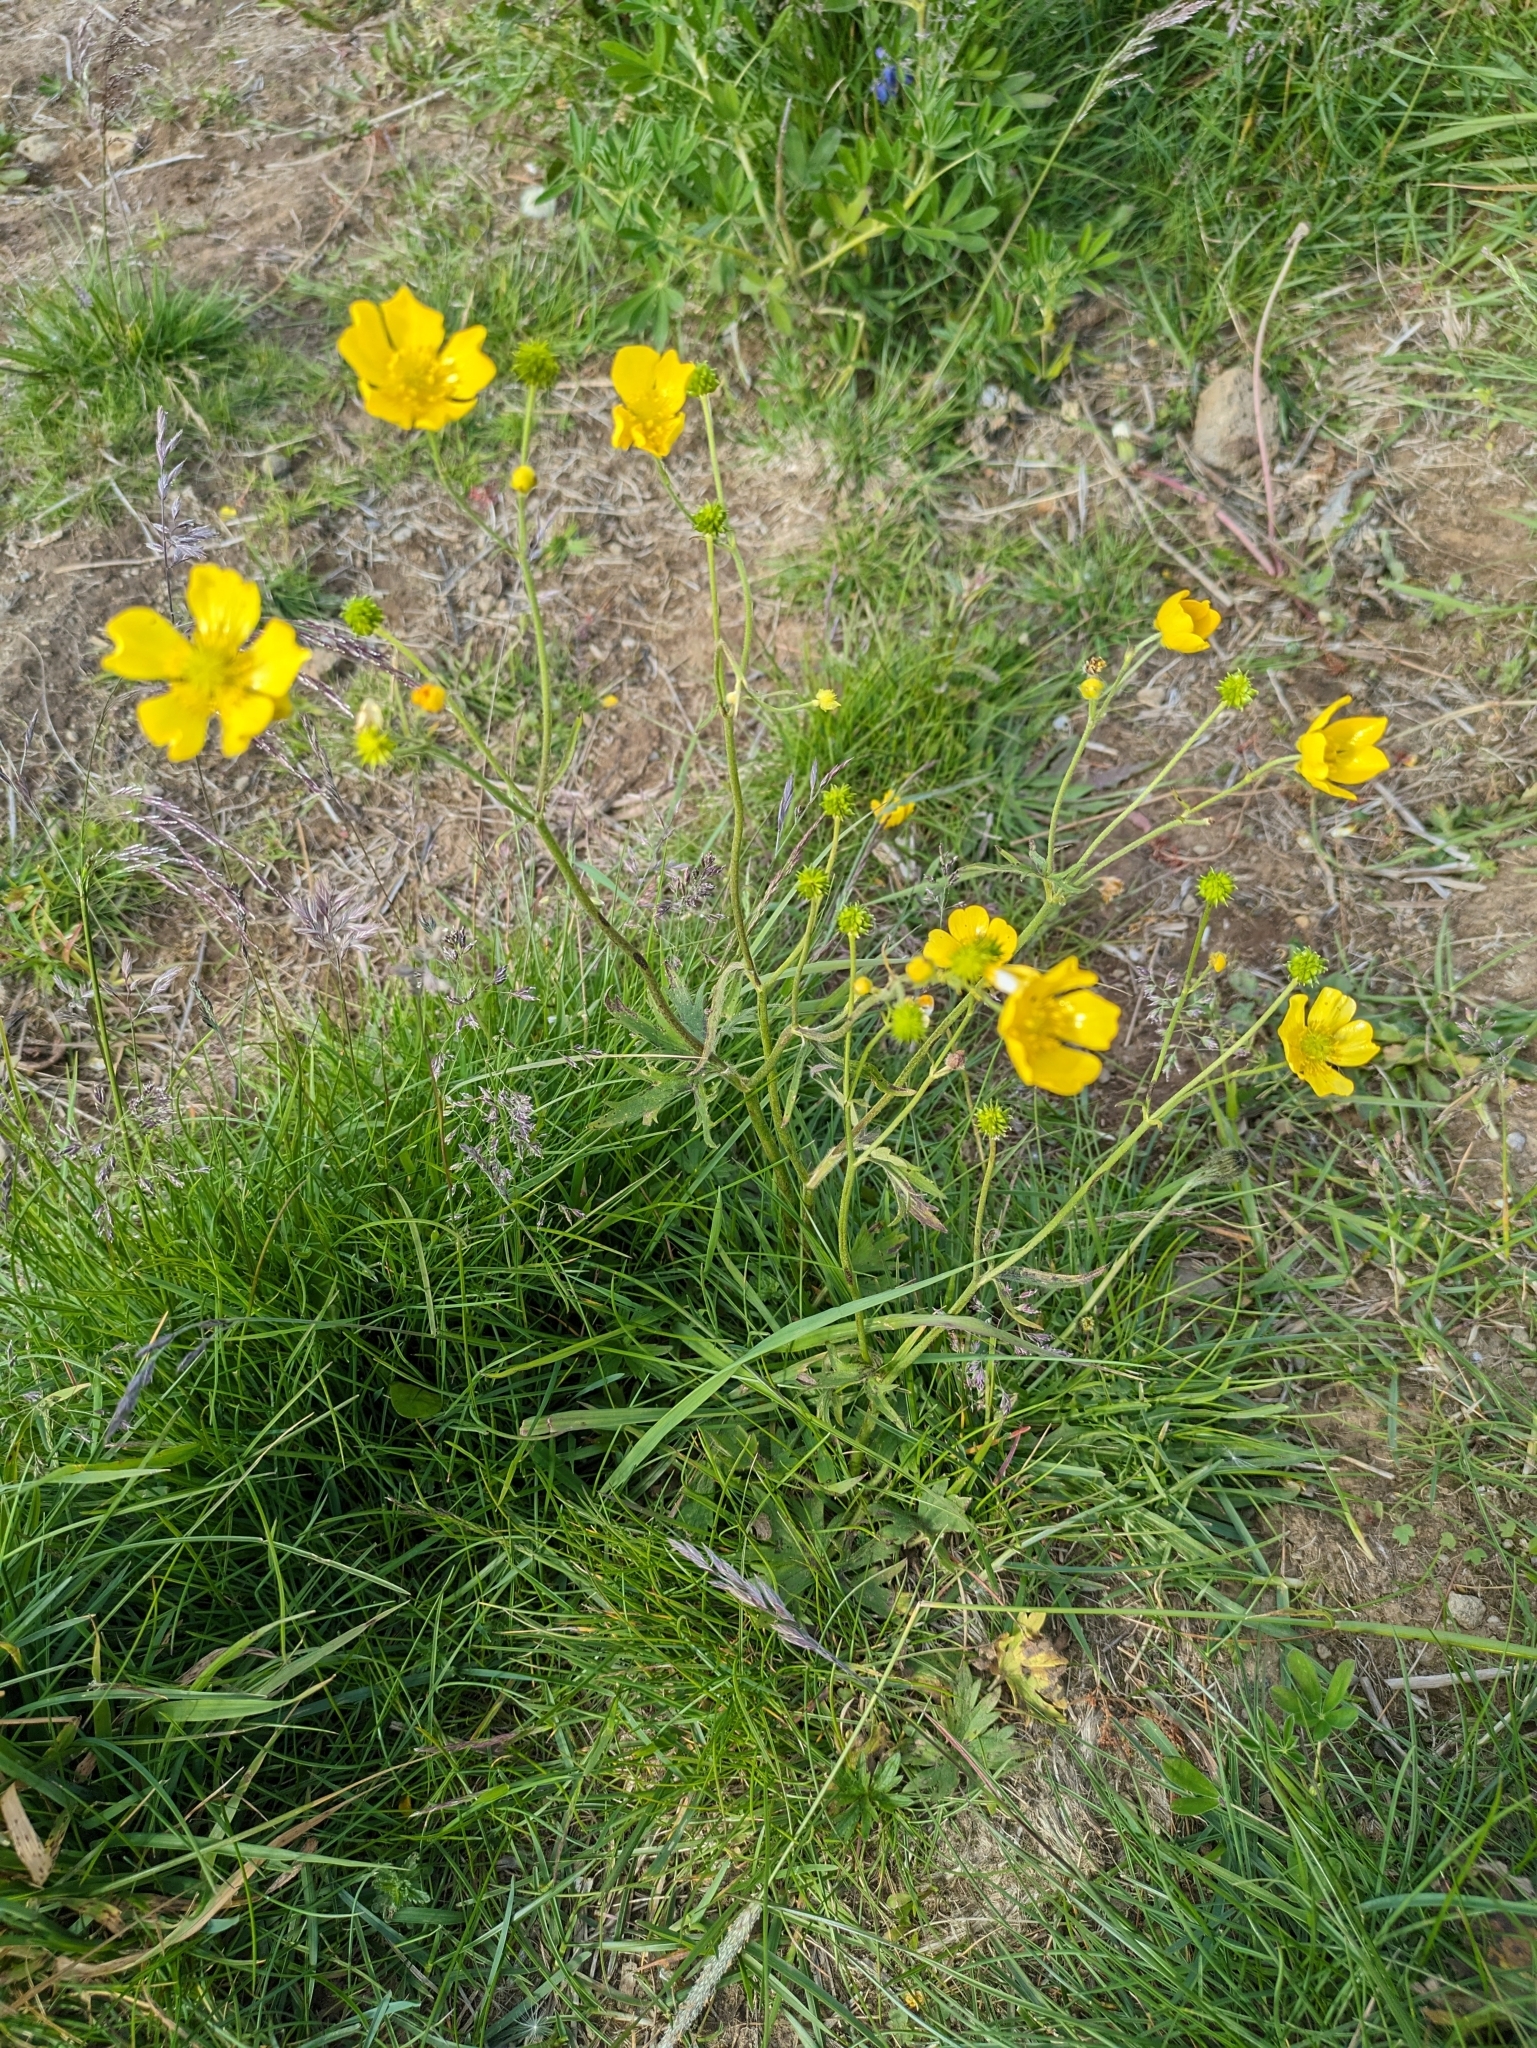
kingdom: Plantae
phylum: Tracheophyta
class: Magnoliopsida
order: Ranunculales
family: Ranunculaceae
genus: Ranunculus
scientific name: Ranunculus acris
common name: Meadow buttercup
